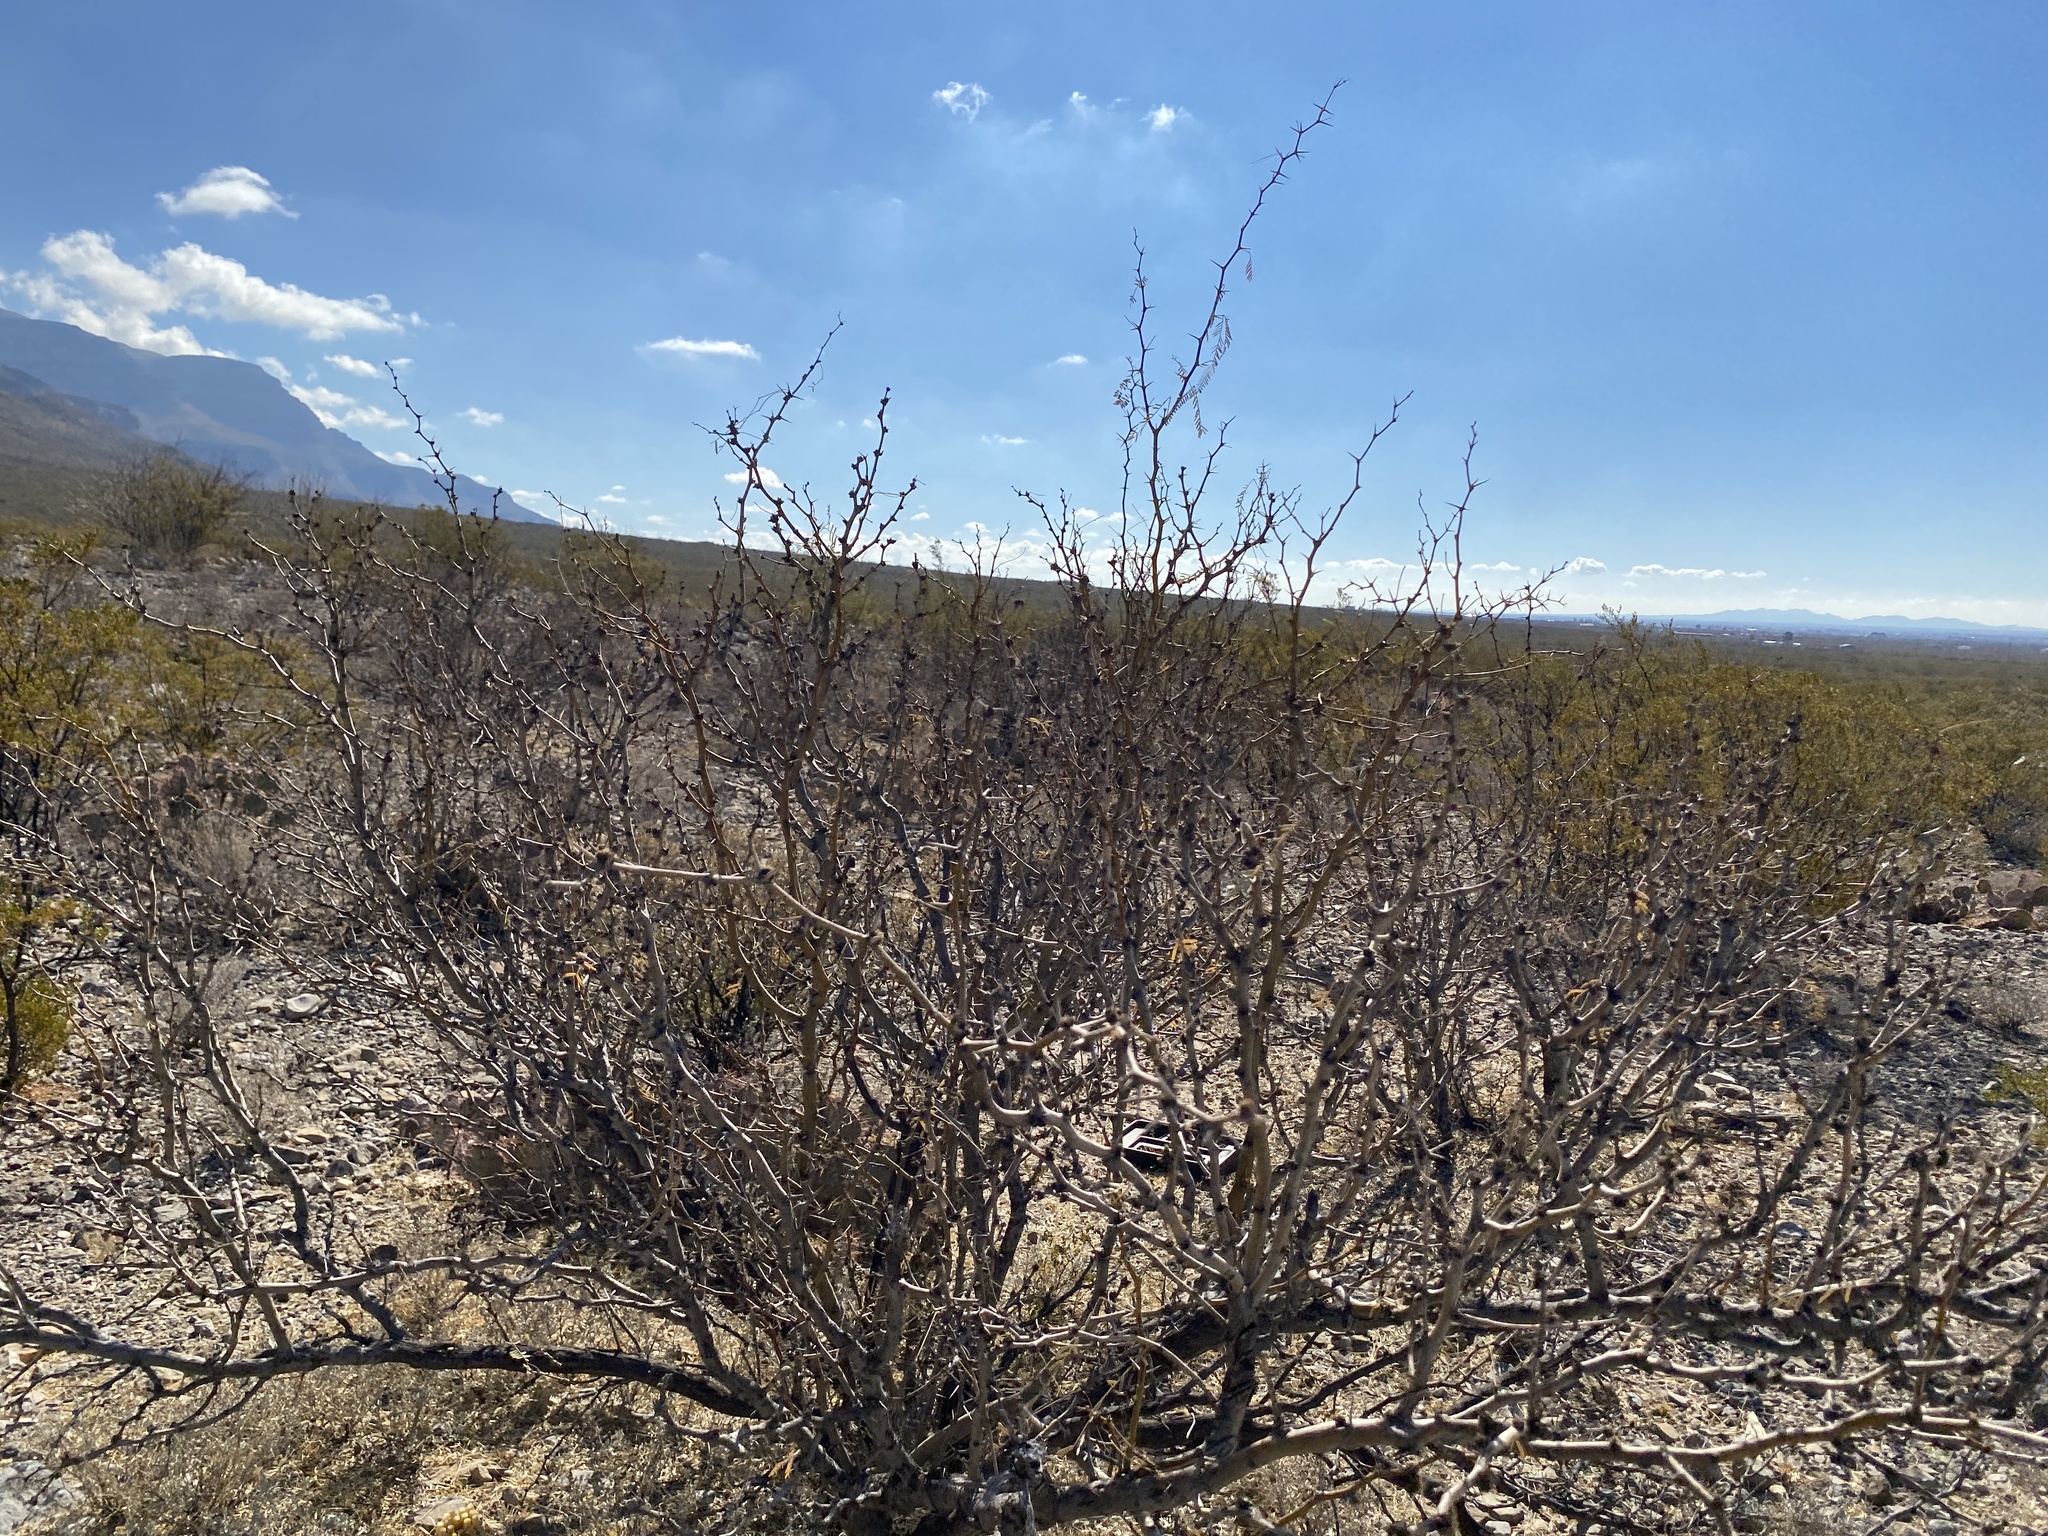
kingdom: Plantae
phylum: Tracheophyta
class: Magnoliopsida
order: Fabales
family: Fabaceae
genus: Prosopis
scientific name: Prosopis glandulosa
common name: Honey mesquite
